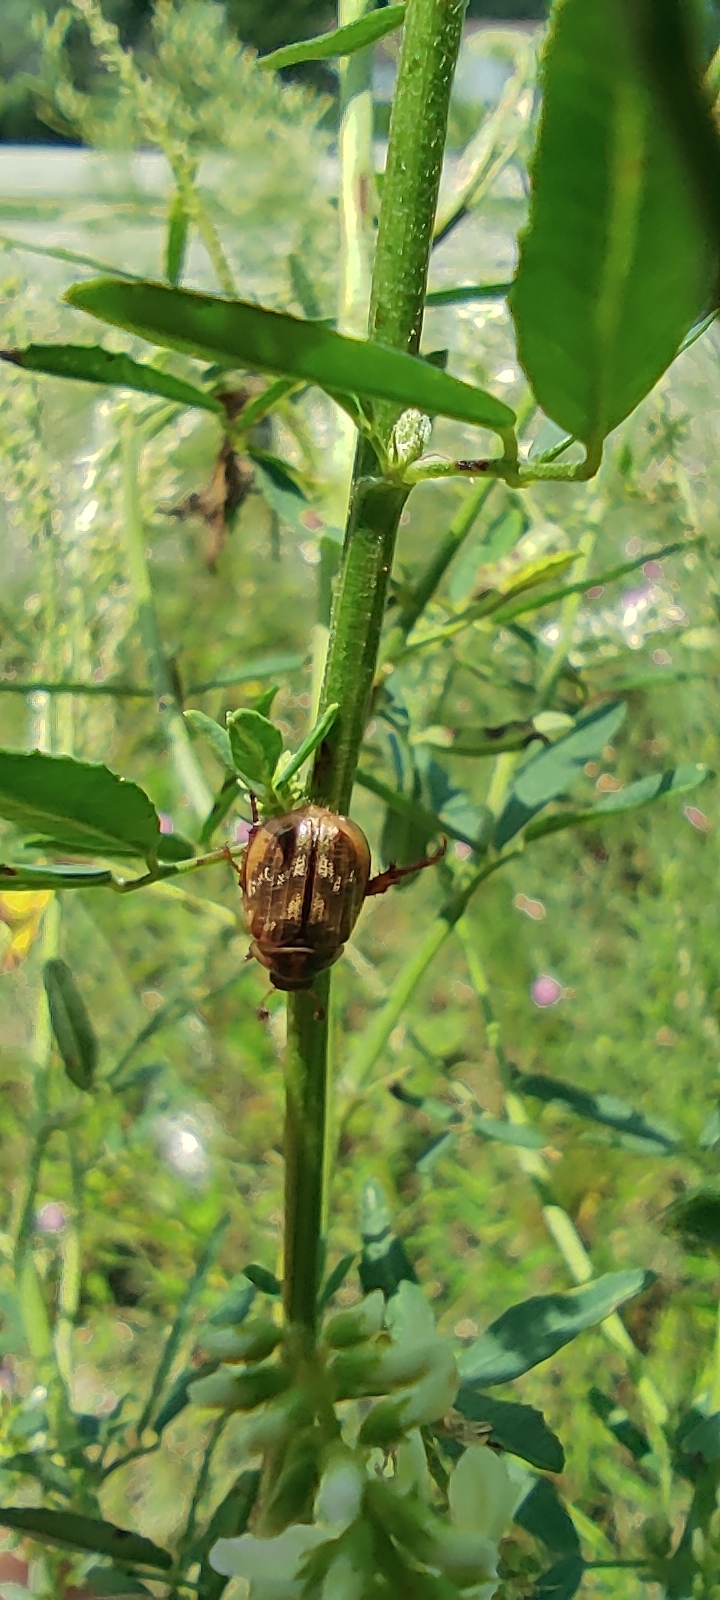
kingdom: Animalia
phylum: Arthropoda
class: Insecta
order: Coleoptera
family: Scarabaeidae
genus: Exomala
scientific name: Exomala orientalis
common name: Oriental beetle
